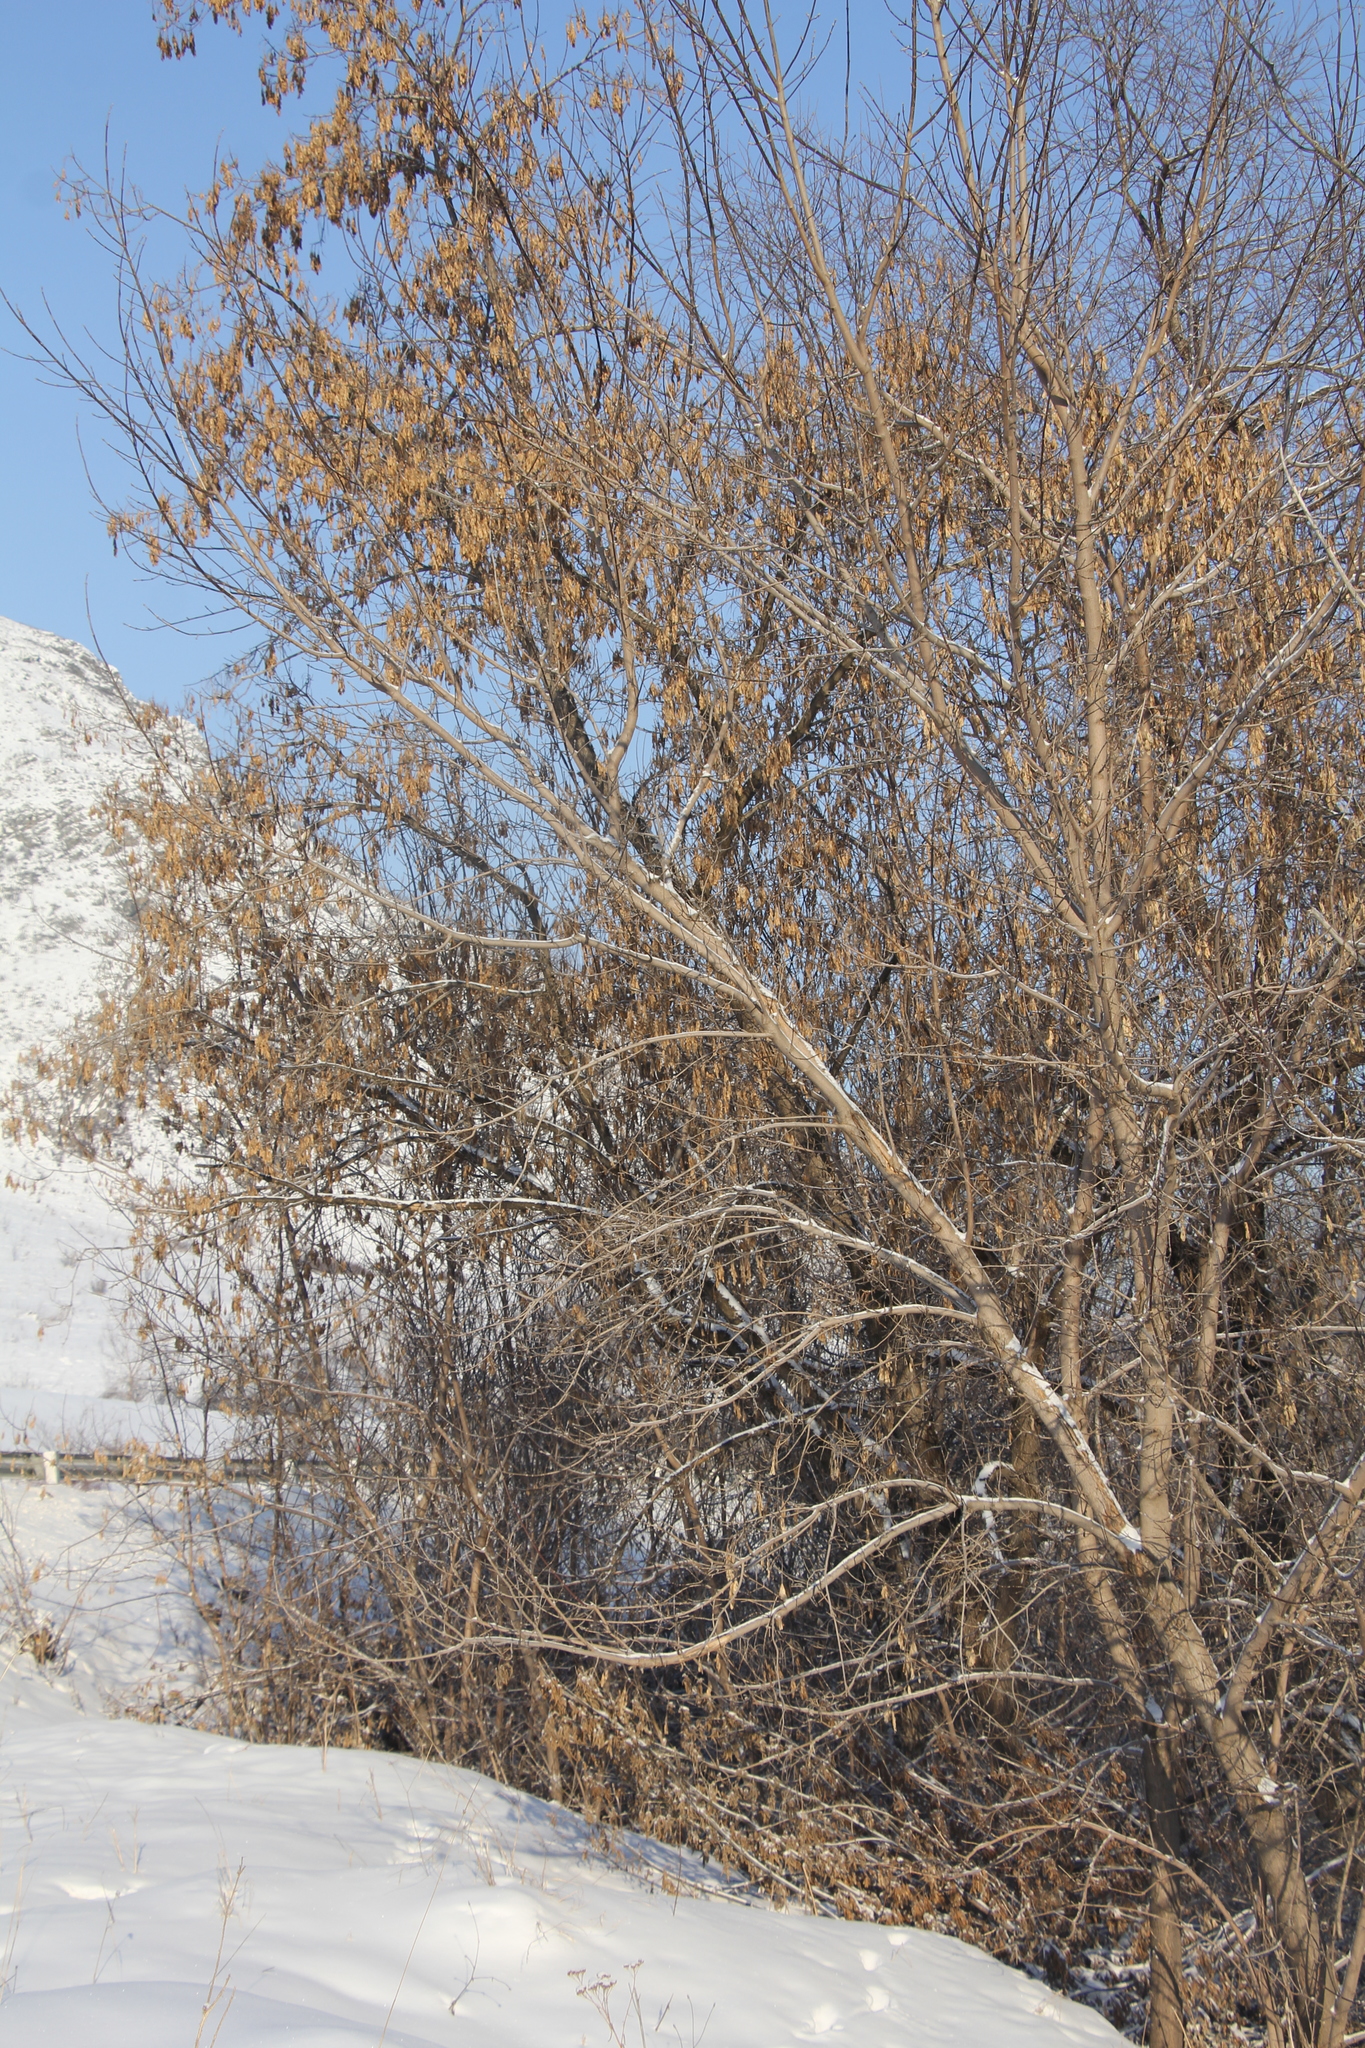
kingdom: Plantae
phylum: Tracheophyta
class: Magnoliopsida
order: Sapindales
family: Sapindaceae
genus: Acer
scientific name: Acer negundo
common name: Ashleaf maple
